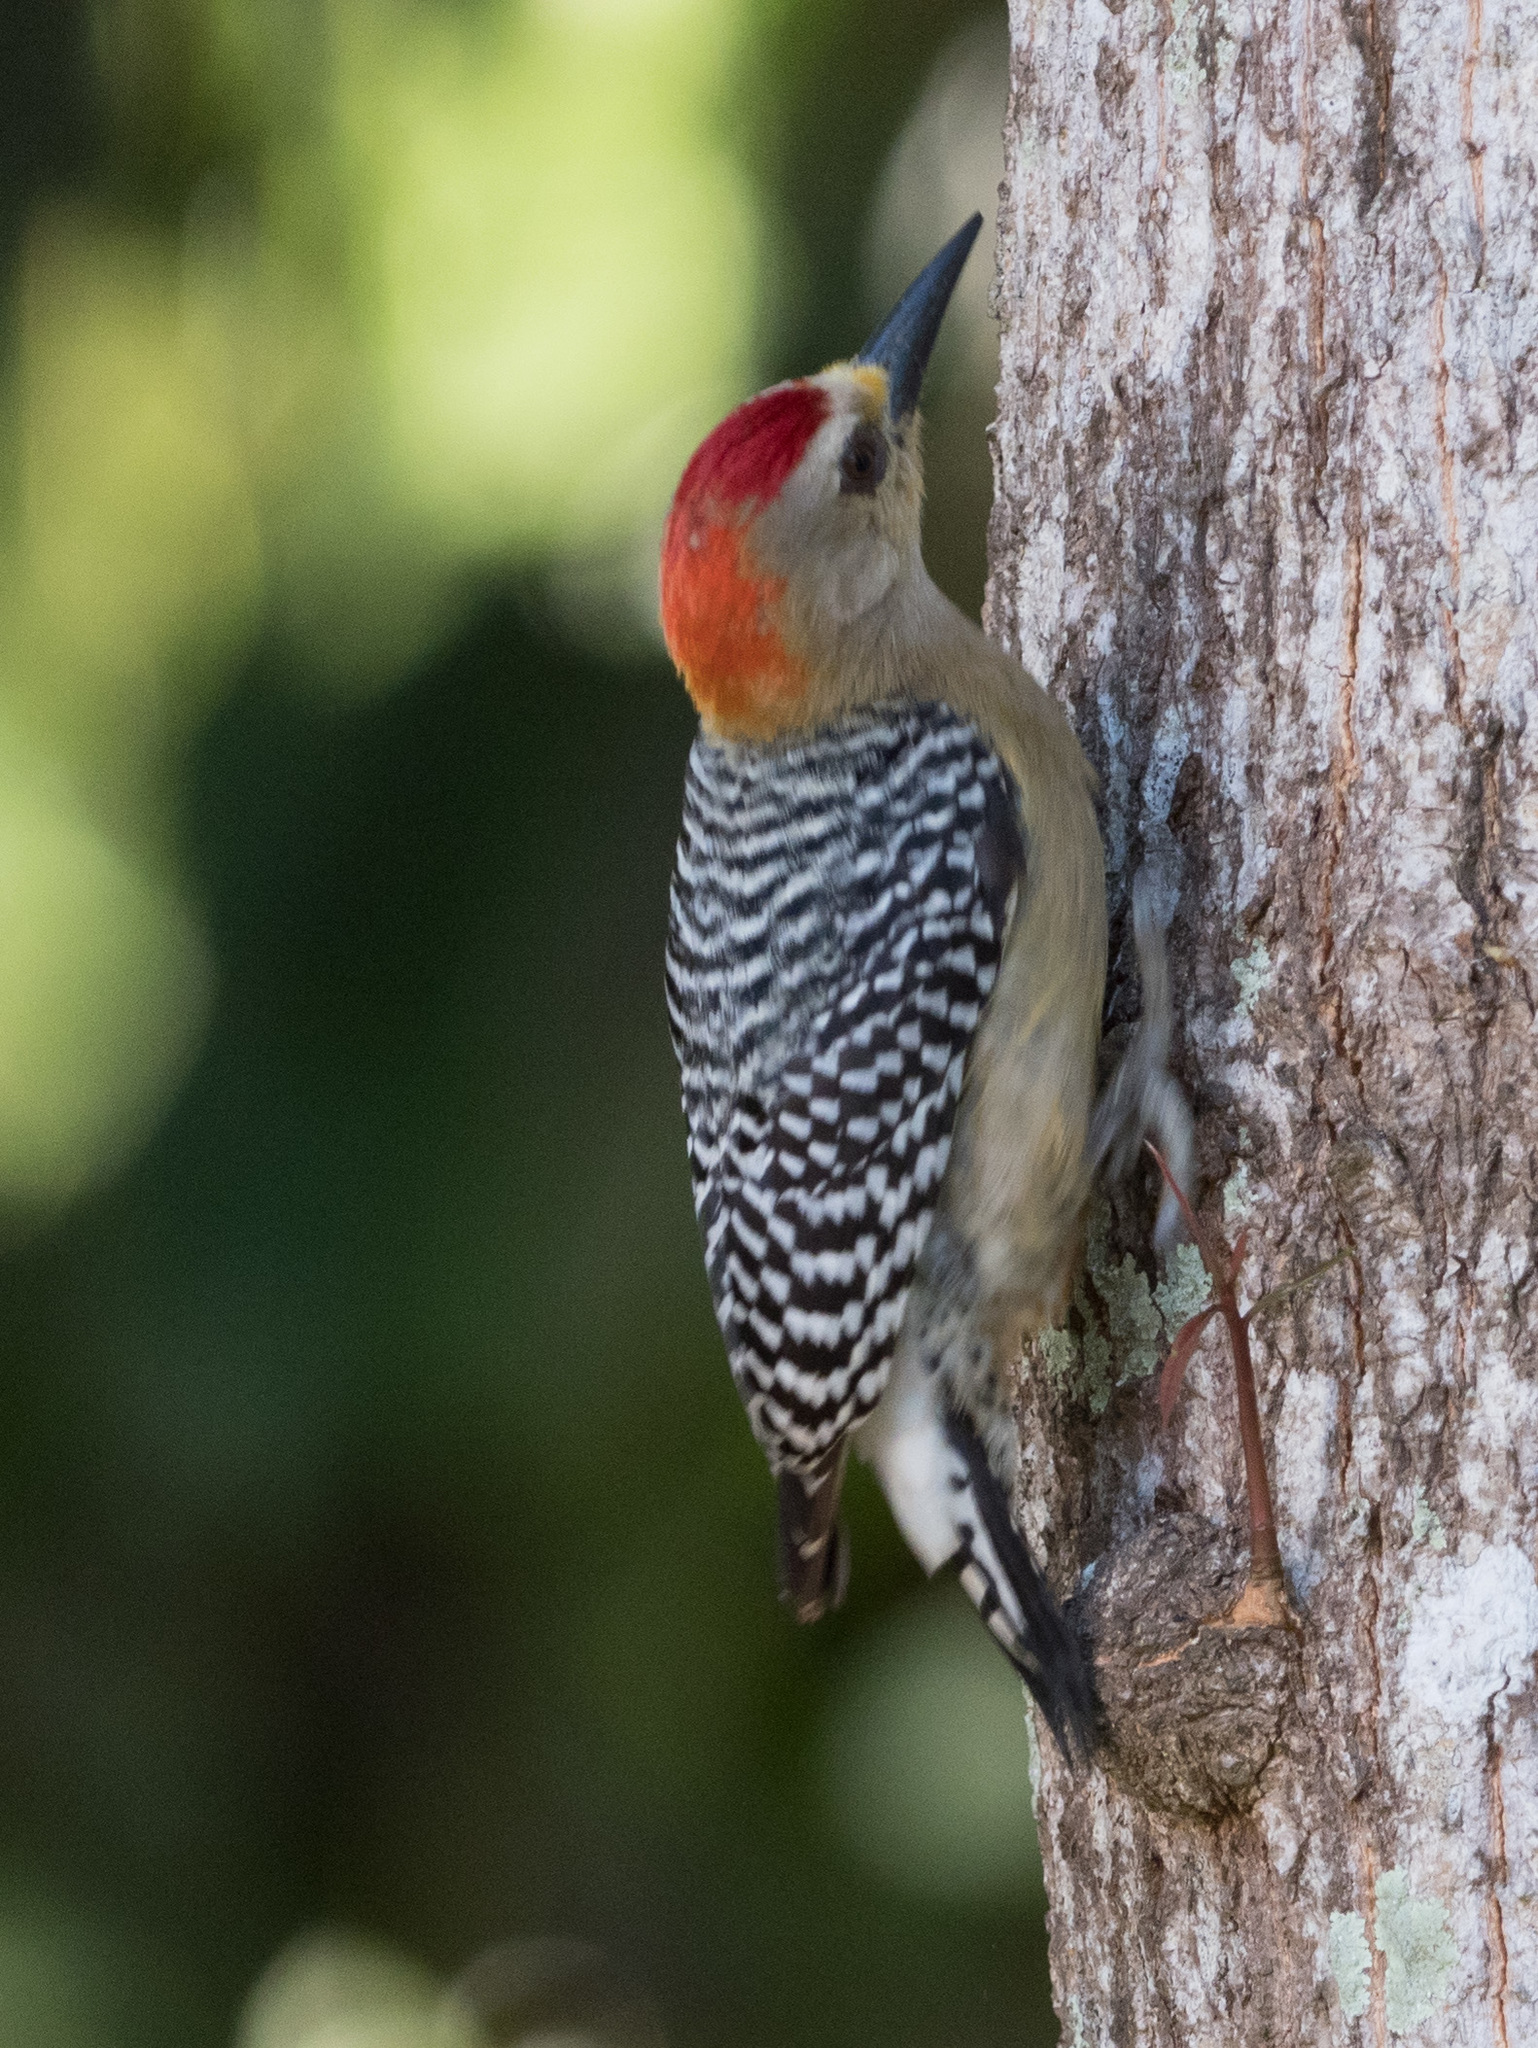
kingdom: Animalia
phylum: Chordata
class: Aves
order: Piciformes
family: Picidae
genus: Melanerpes
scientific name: Melanerpes rubricapillus
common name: Red-crowned woodpecker
